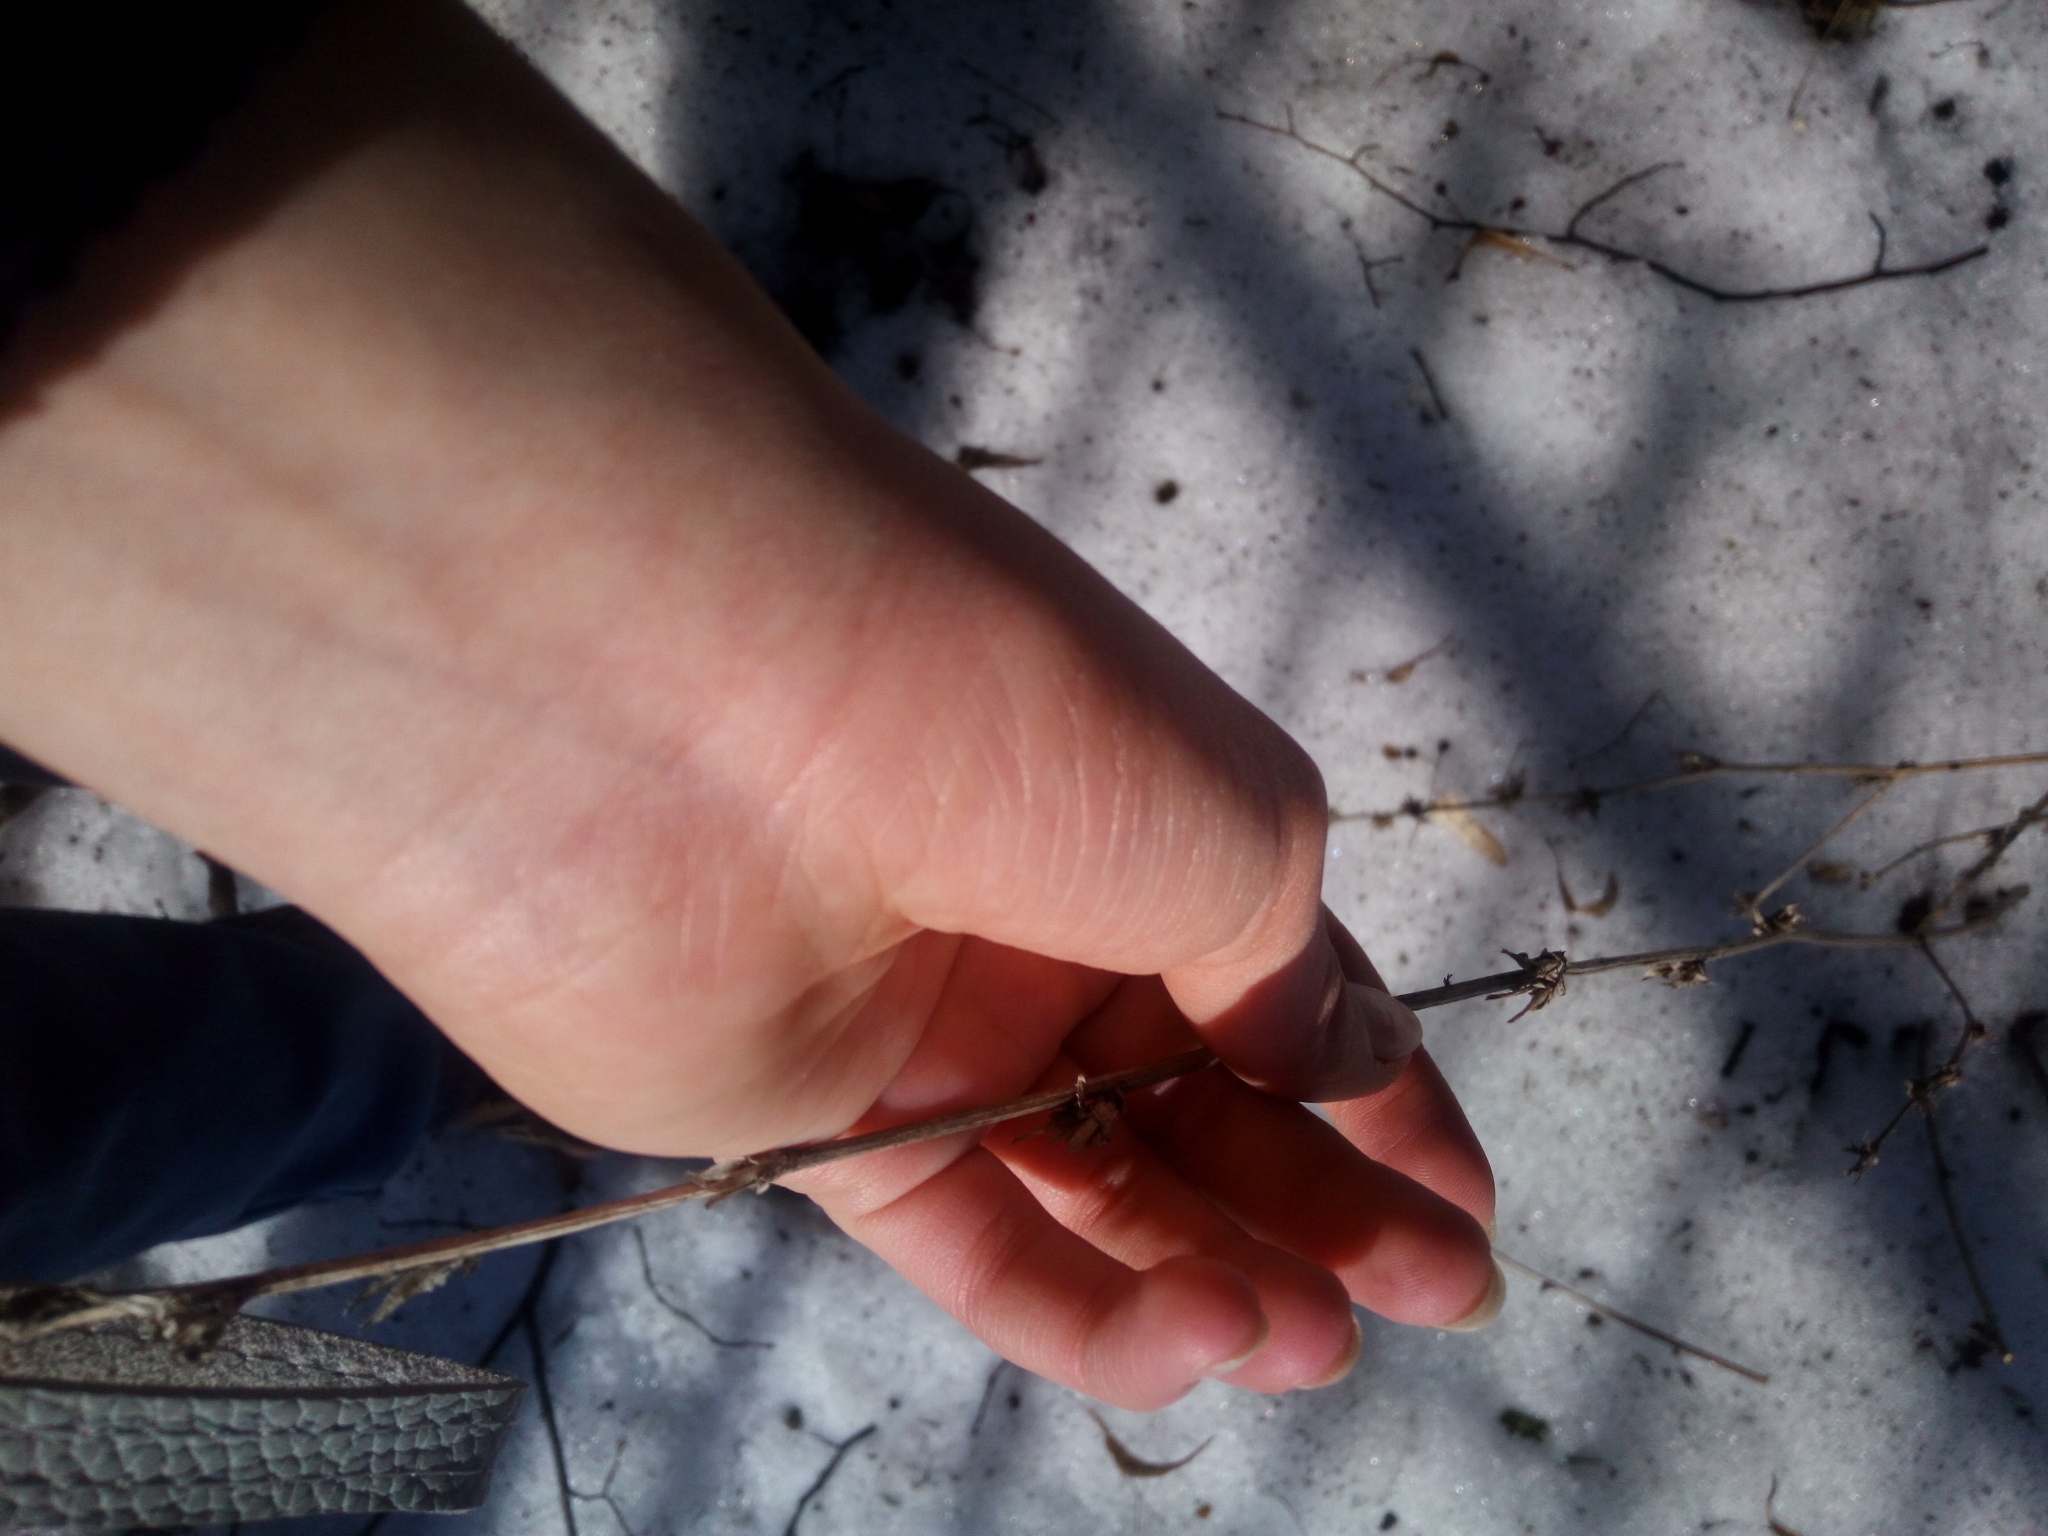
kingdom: Plantae
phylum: Tracheophyta
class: Magnoliopsida
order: Asterales
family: Asteraceae
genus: Cichorium
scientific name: Cichorium intybus
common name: Chicory
